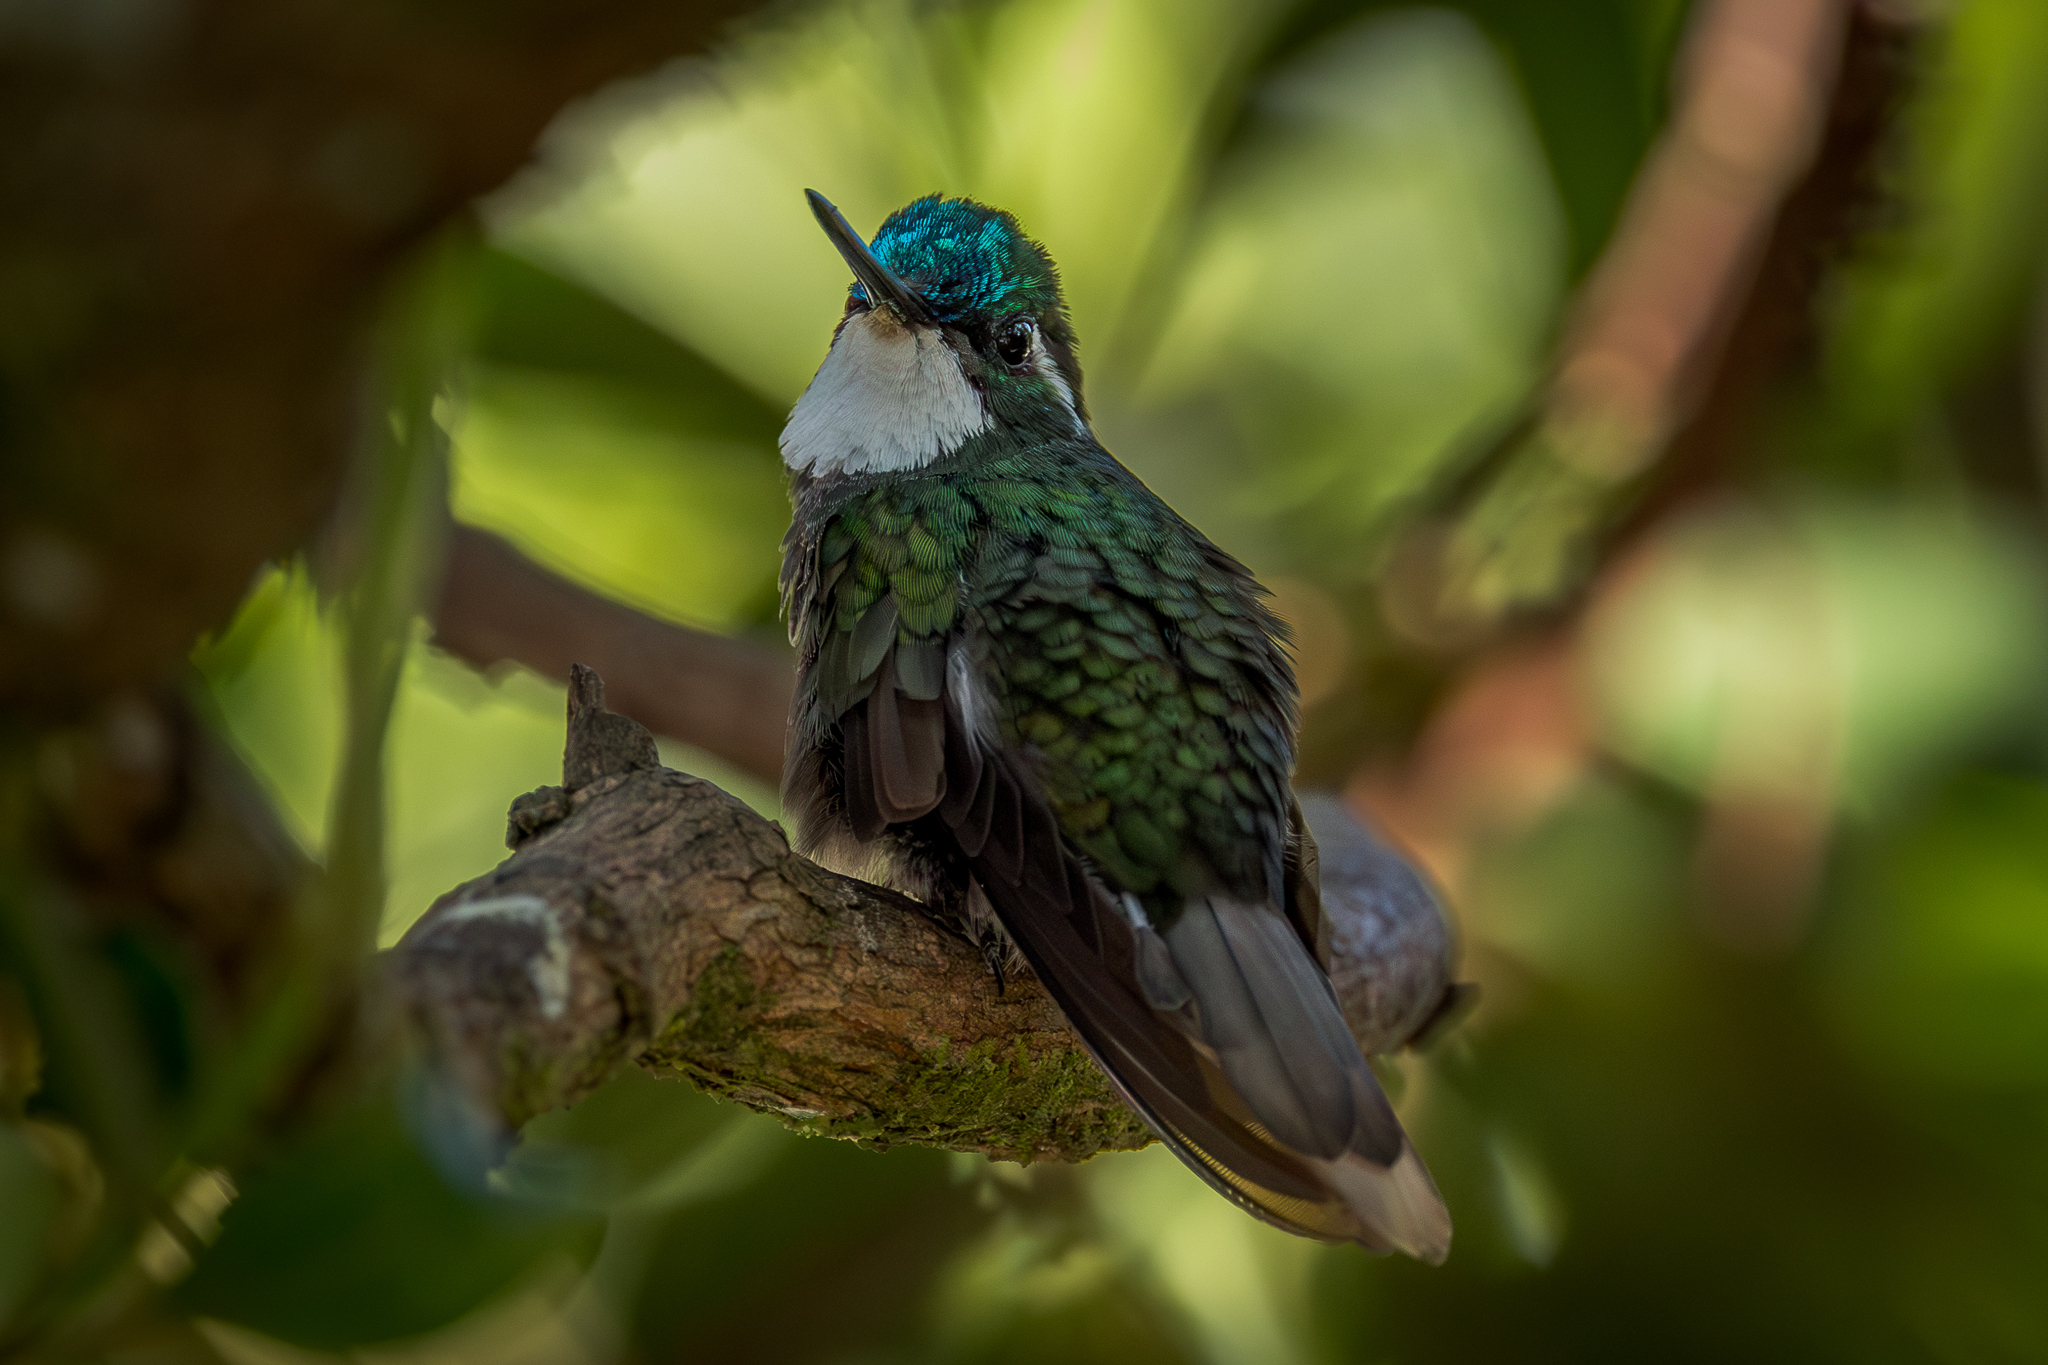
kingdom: Animalia
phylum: Chordata
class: Aves
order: Apodiformes
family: Trochilidae
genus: Lampornis
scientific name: Lampornis castaneoventris
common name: White-throated mountain-gem
